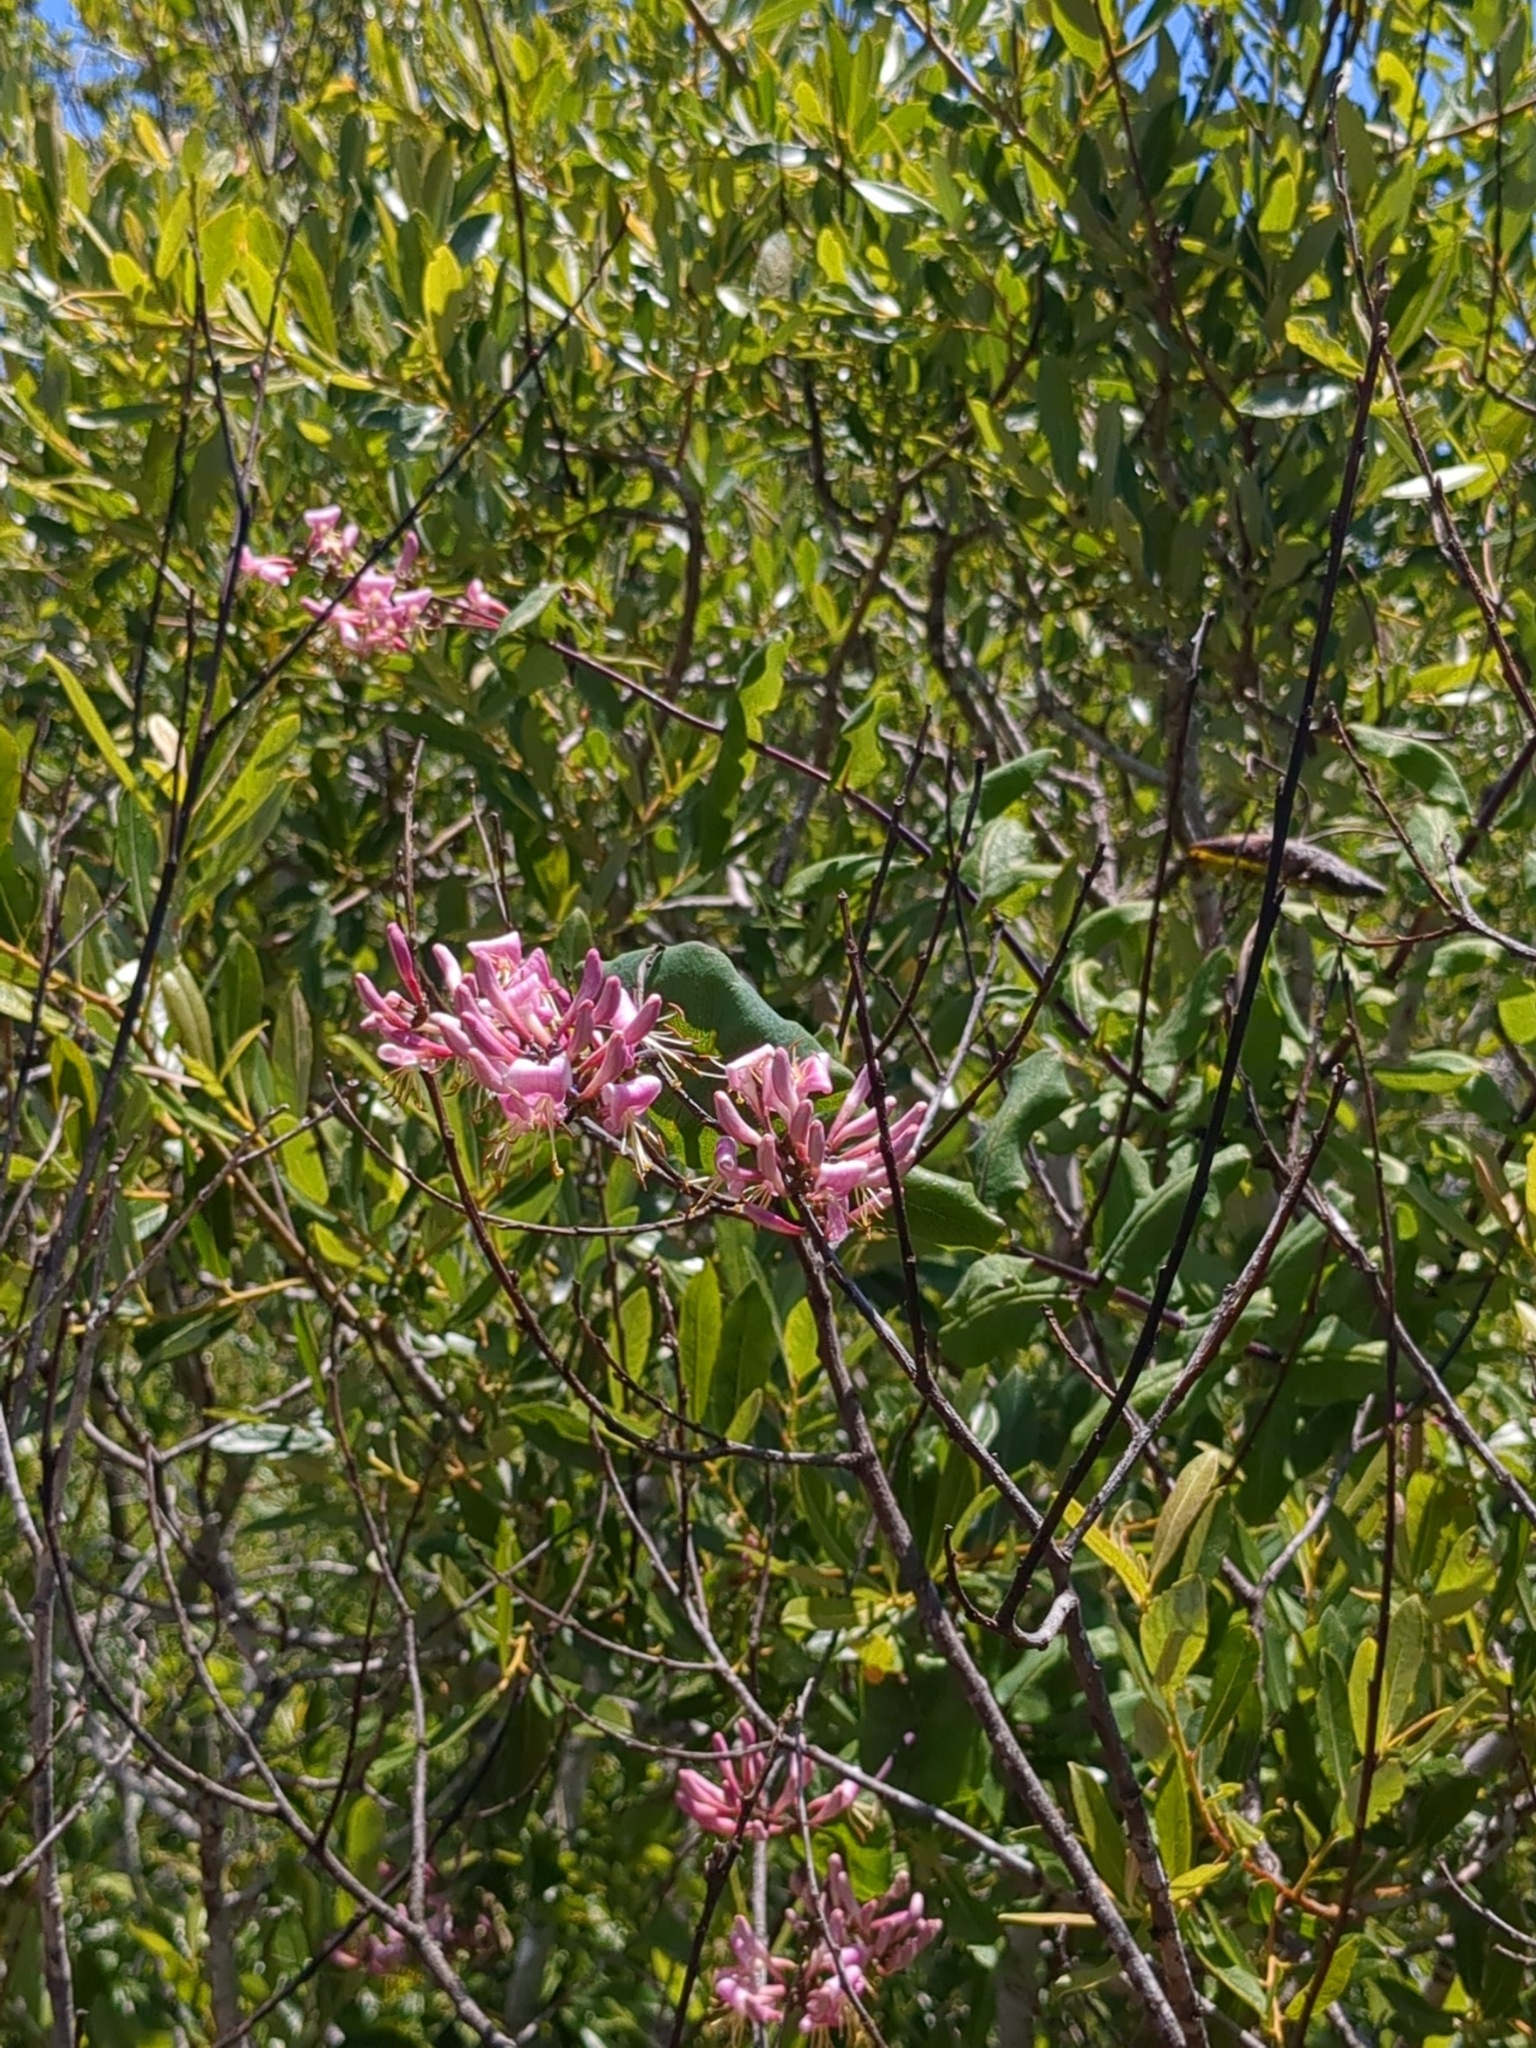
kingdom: Plantae
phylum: Tracheophyta
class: Magnoliopsida
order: Dipsacales
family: Caprifoliaceae
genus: Lonicera
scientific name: Lonicera hispidula
